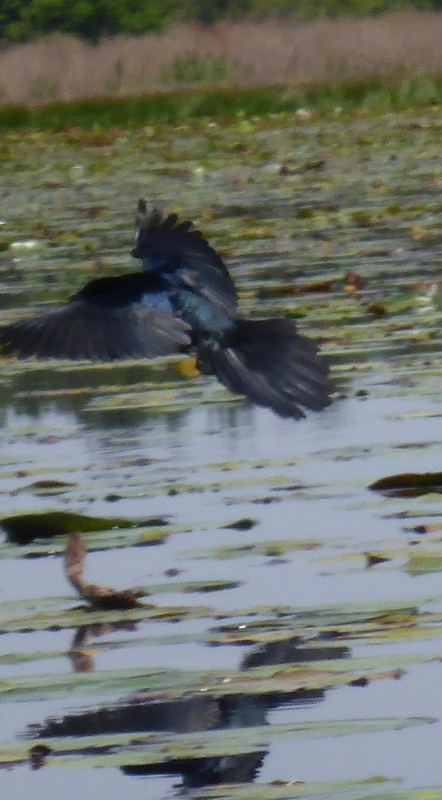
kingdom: Animalia
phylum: Chordata
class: Aves
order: Passeriformes
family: Icteridae
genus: Quiscalus
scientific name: Quiscalus major
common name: Boat-tailed grackle
